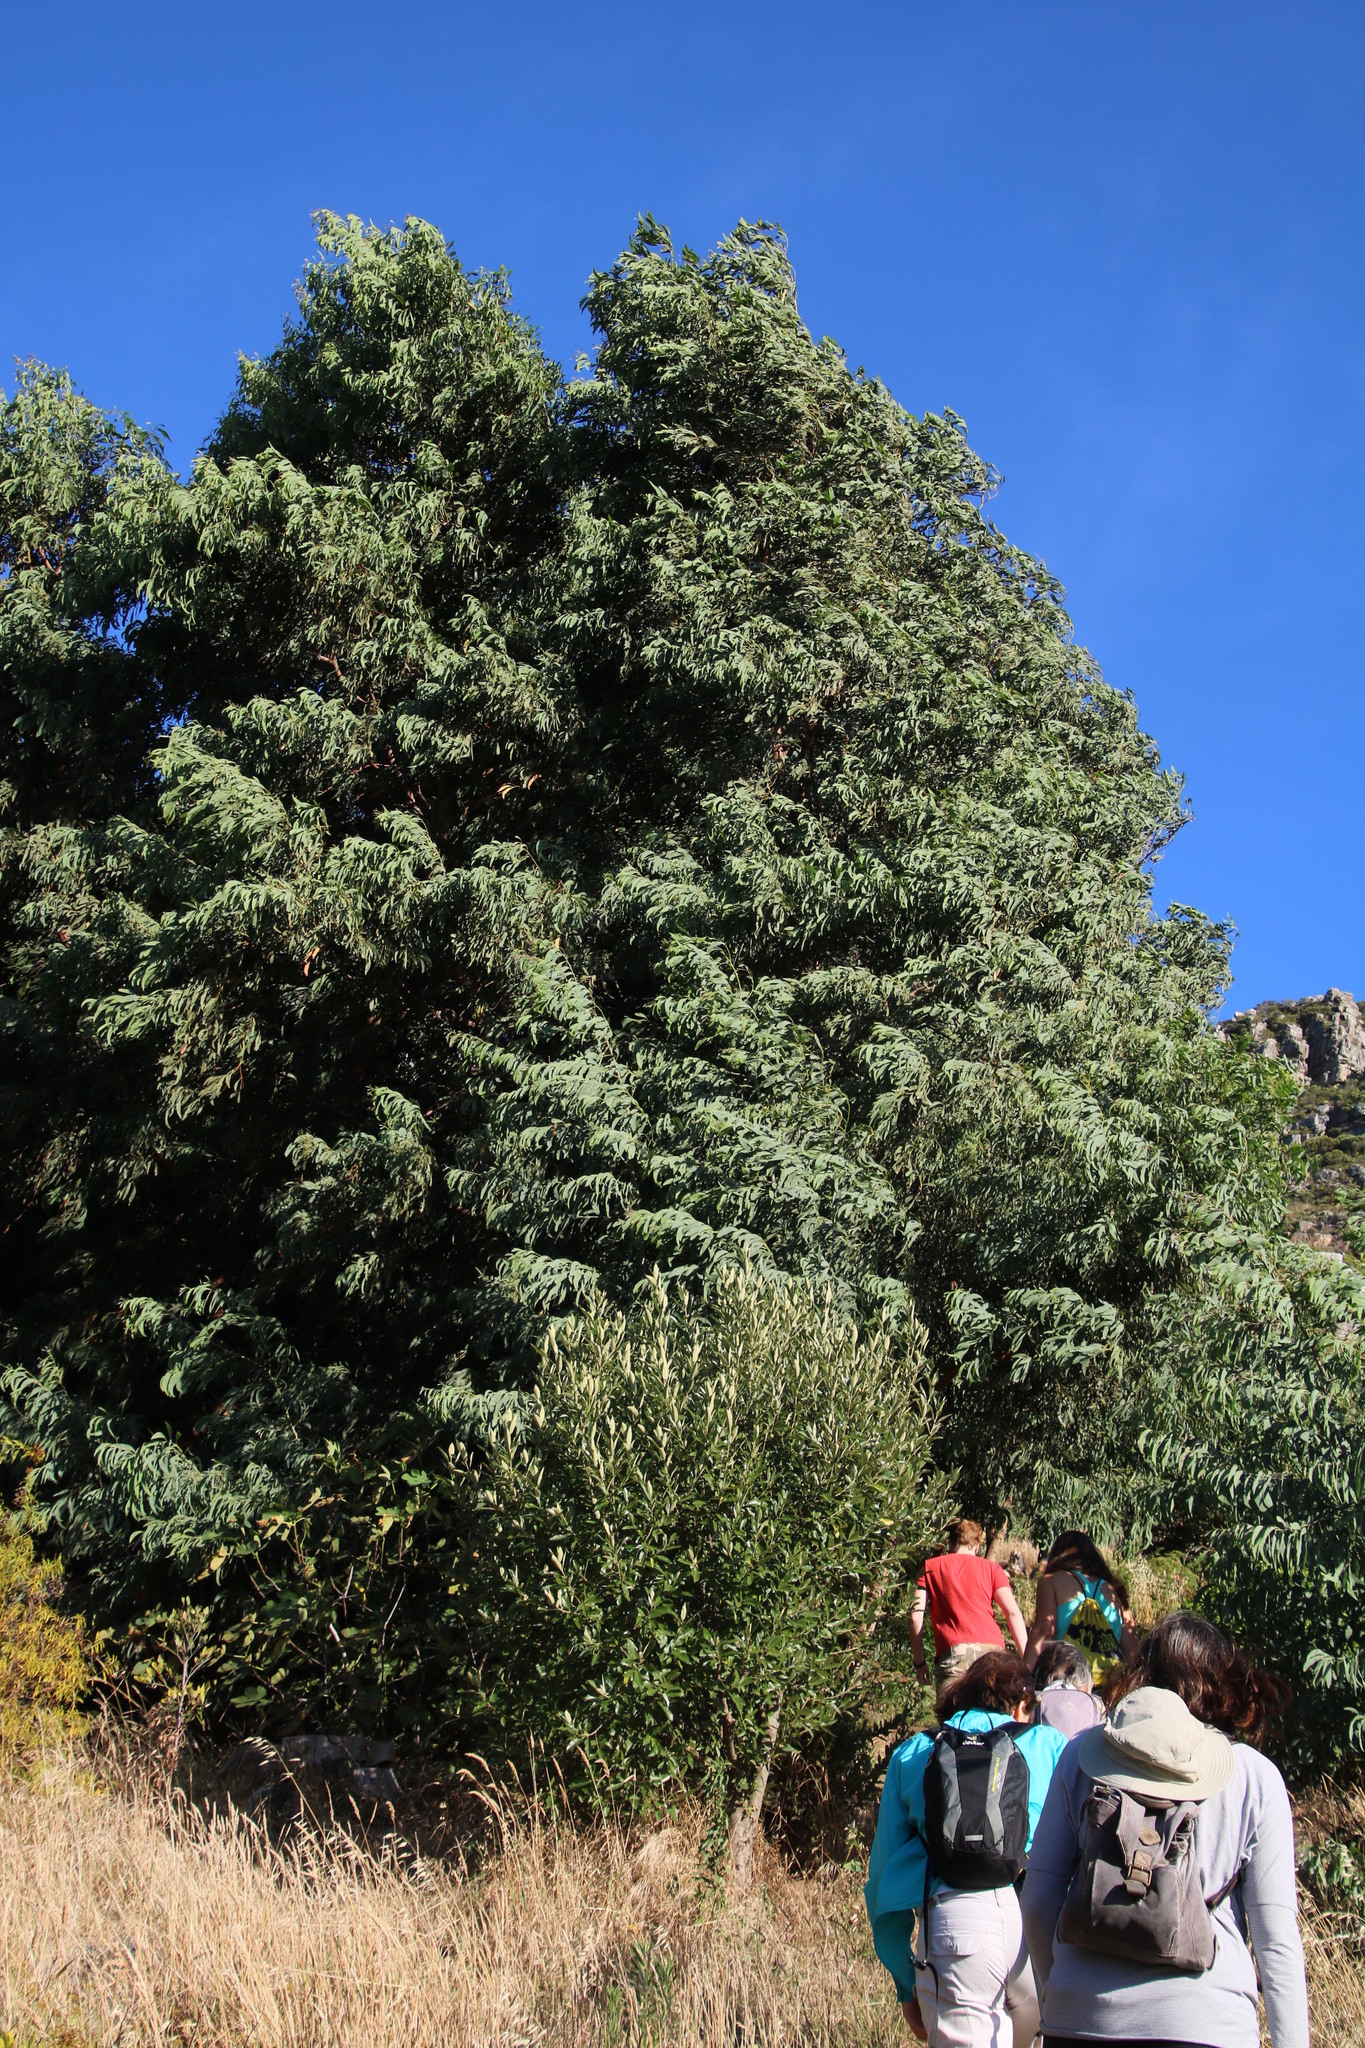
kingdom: Plantae
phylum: Tracheophyta
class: Magnoliopsida
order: Fabales
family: Fabaceae
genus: Acacia
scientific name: Acacia falciformis
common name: Tanning wattle
